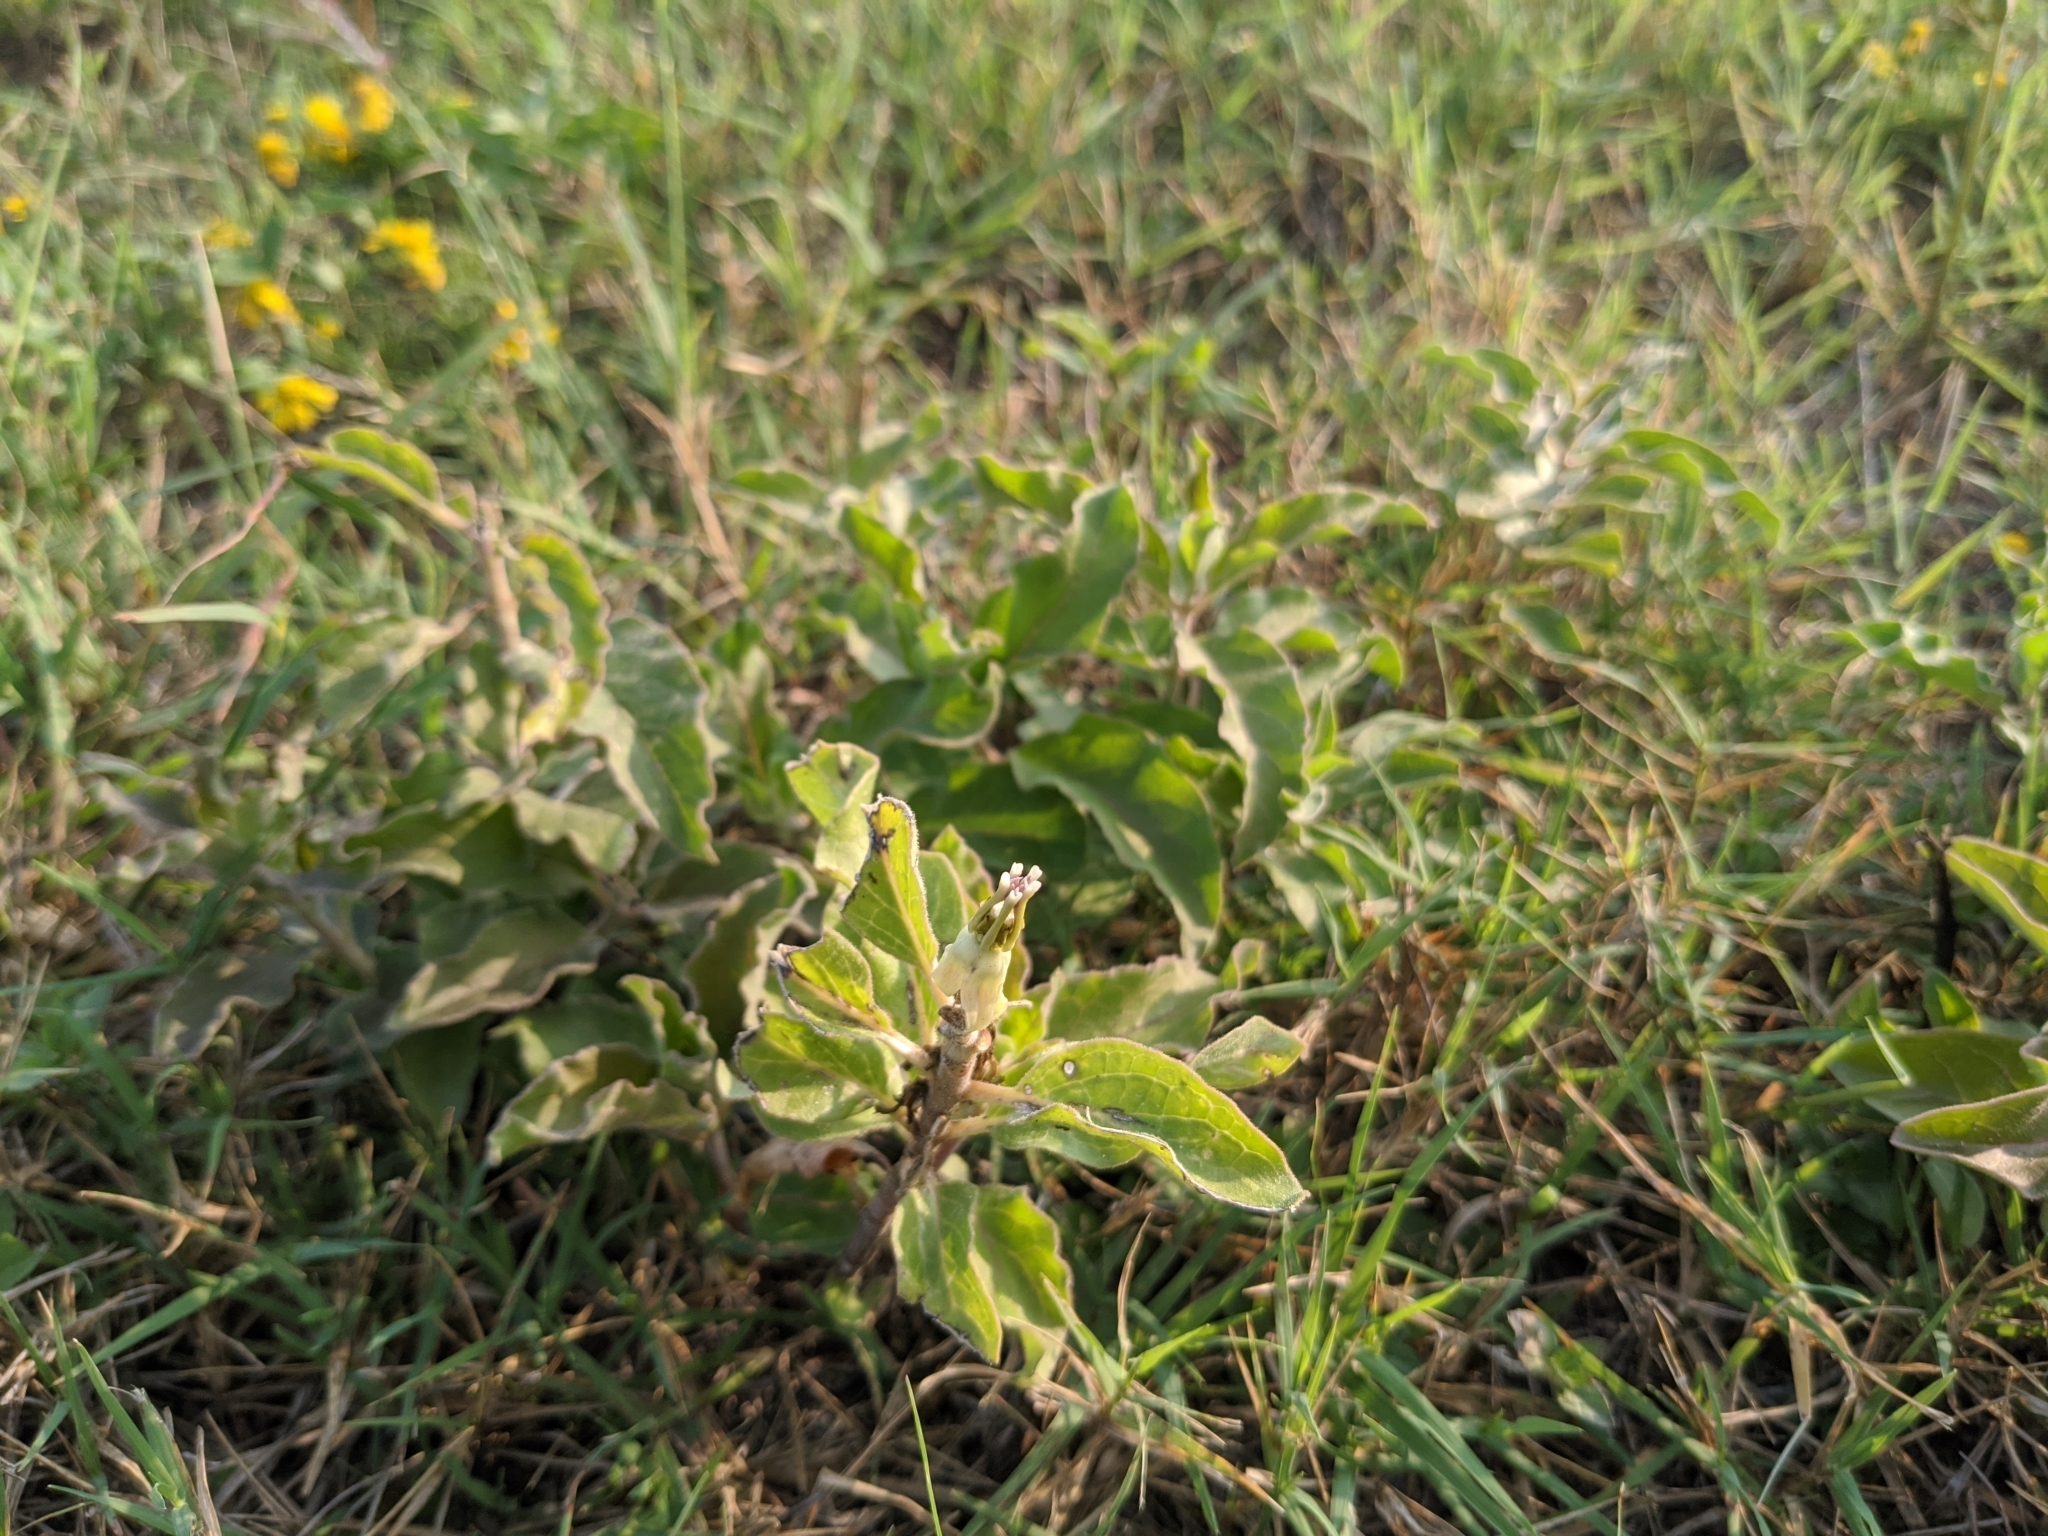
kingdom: Plantae
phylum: Tracheophyta
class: Magnoliopsida
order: Gentianales
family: Apocynaceae
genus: Asclepias
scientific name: Asclepias oenotheroides
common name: Zizotes milkweed
